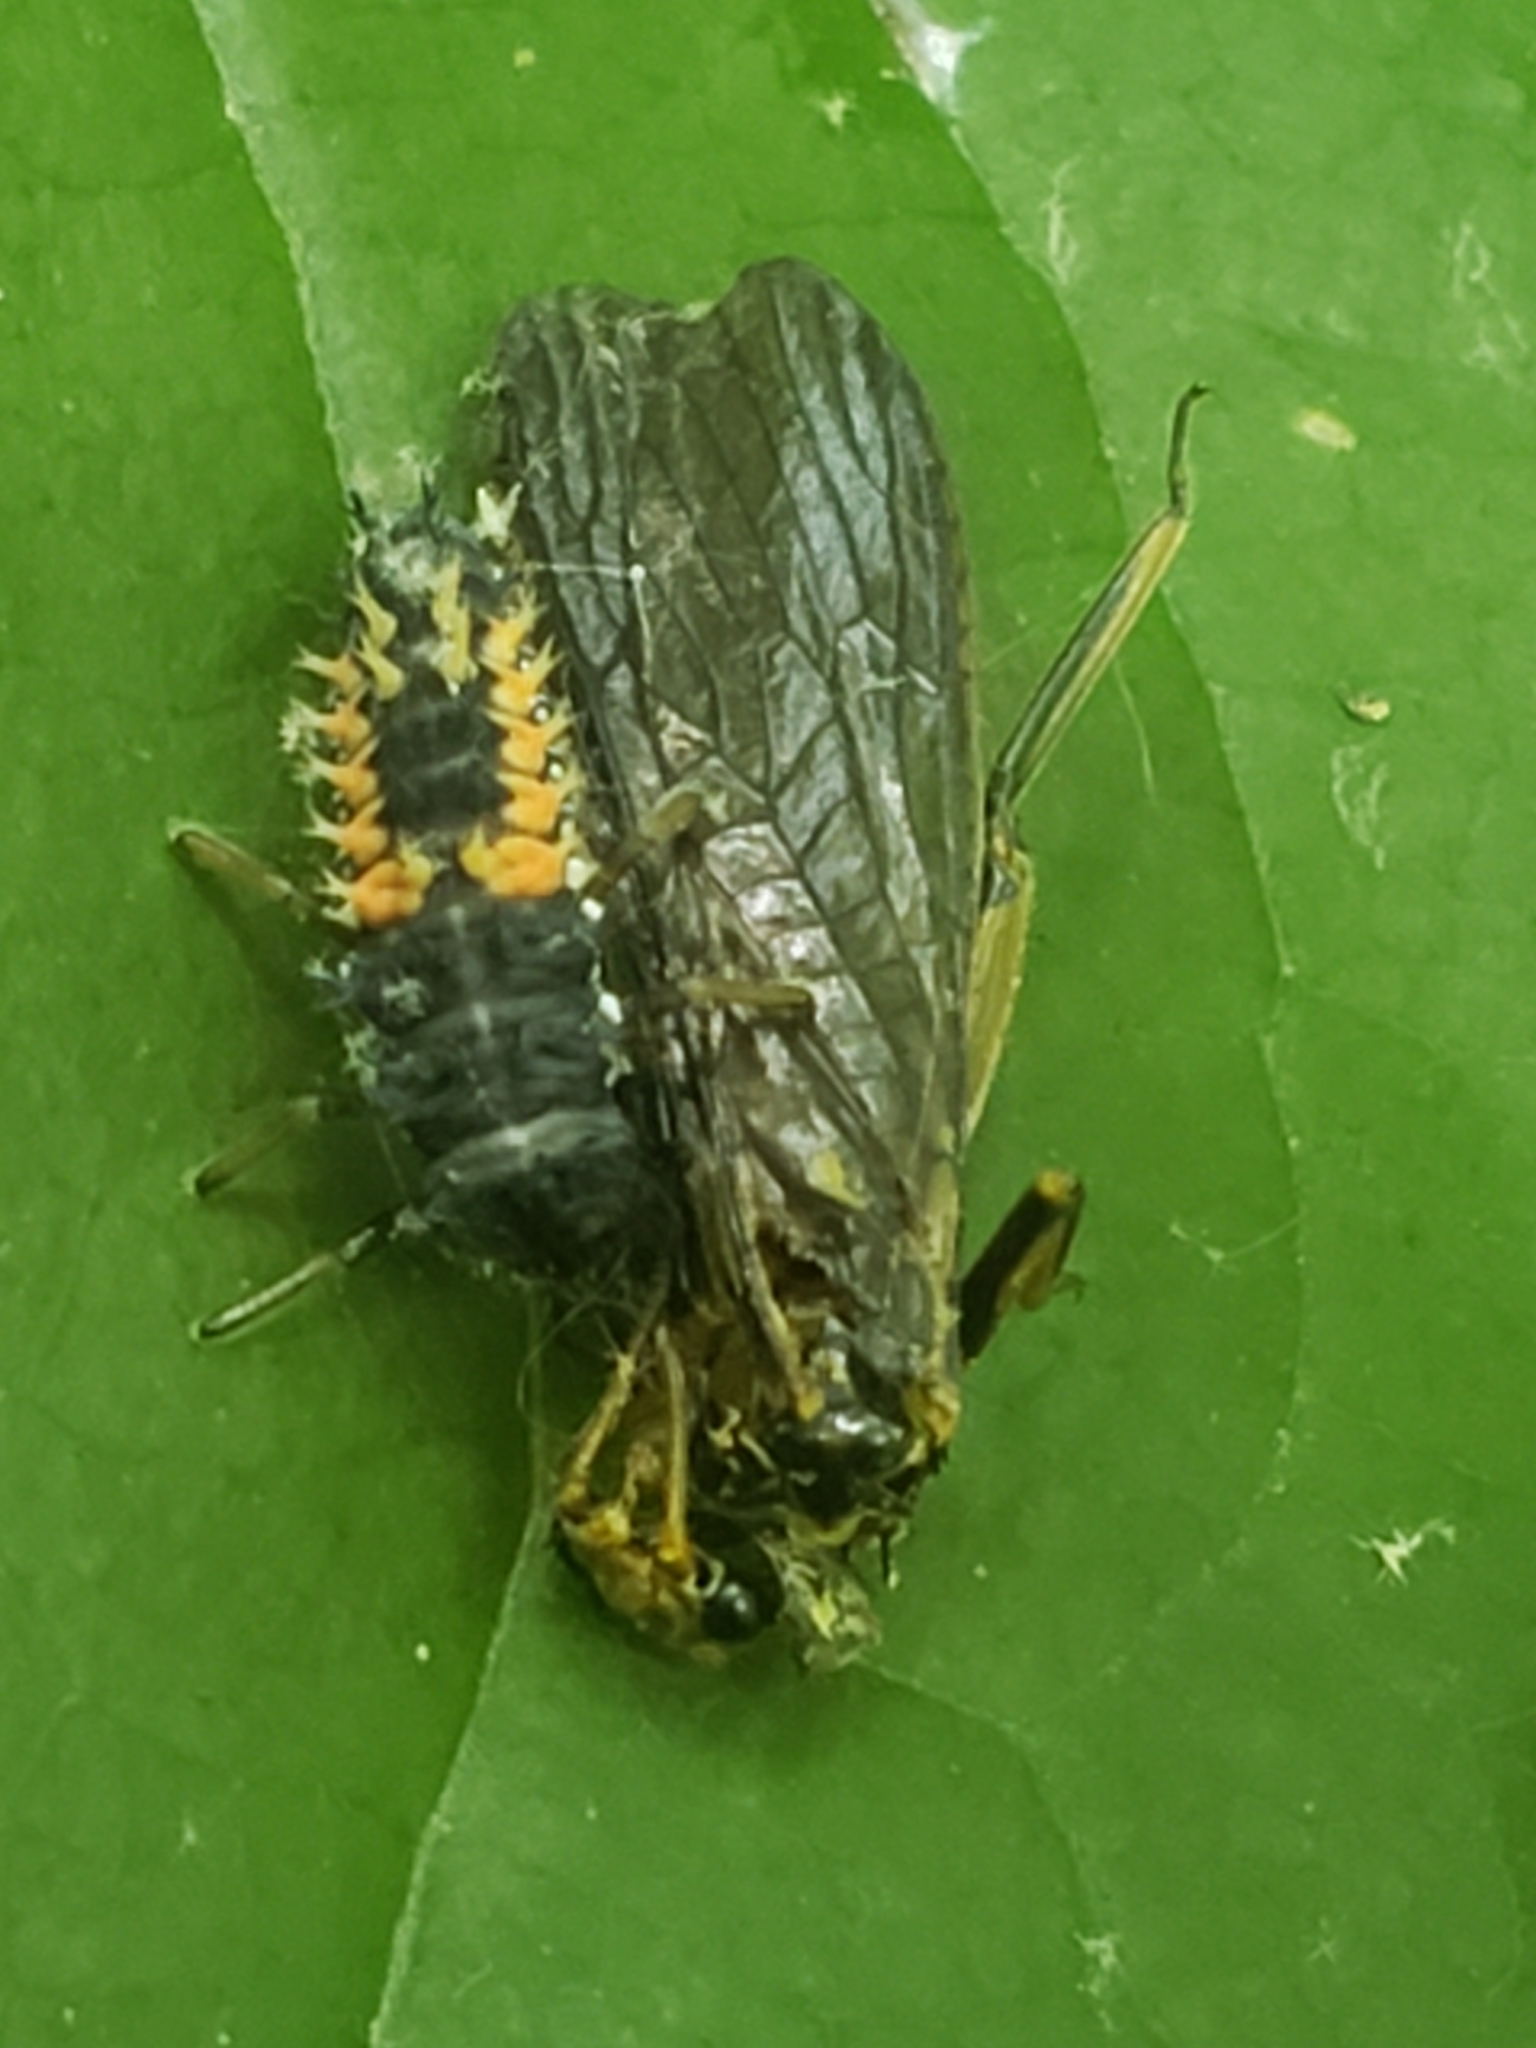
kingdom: Animalia
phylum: Arthropoda
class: Insecta
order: Coleoptera
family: Coccinellidae
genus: Harmonia
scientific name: Harmonia axyridis
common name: Harlequin ladybird
